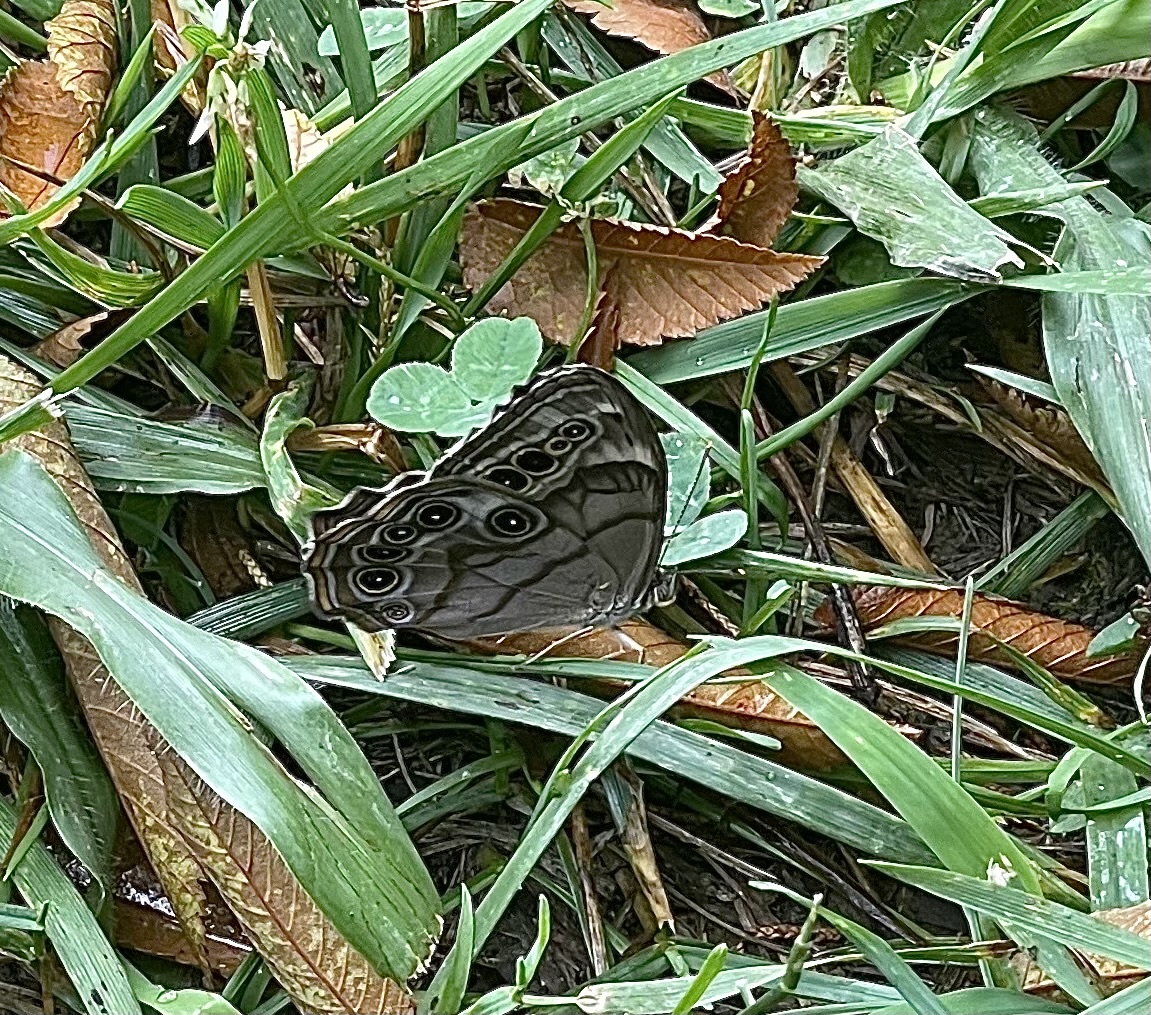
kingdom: Animalia
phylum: Arthropoda
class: Insecta
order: Lepidoptera
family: Nymphalidae
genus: Lethe
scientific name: Lethe anthedon
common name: Northern pearly-eye
